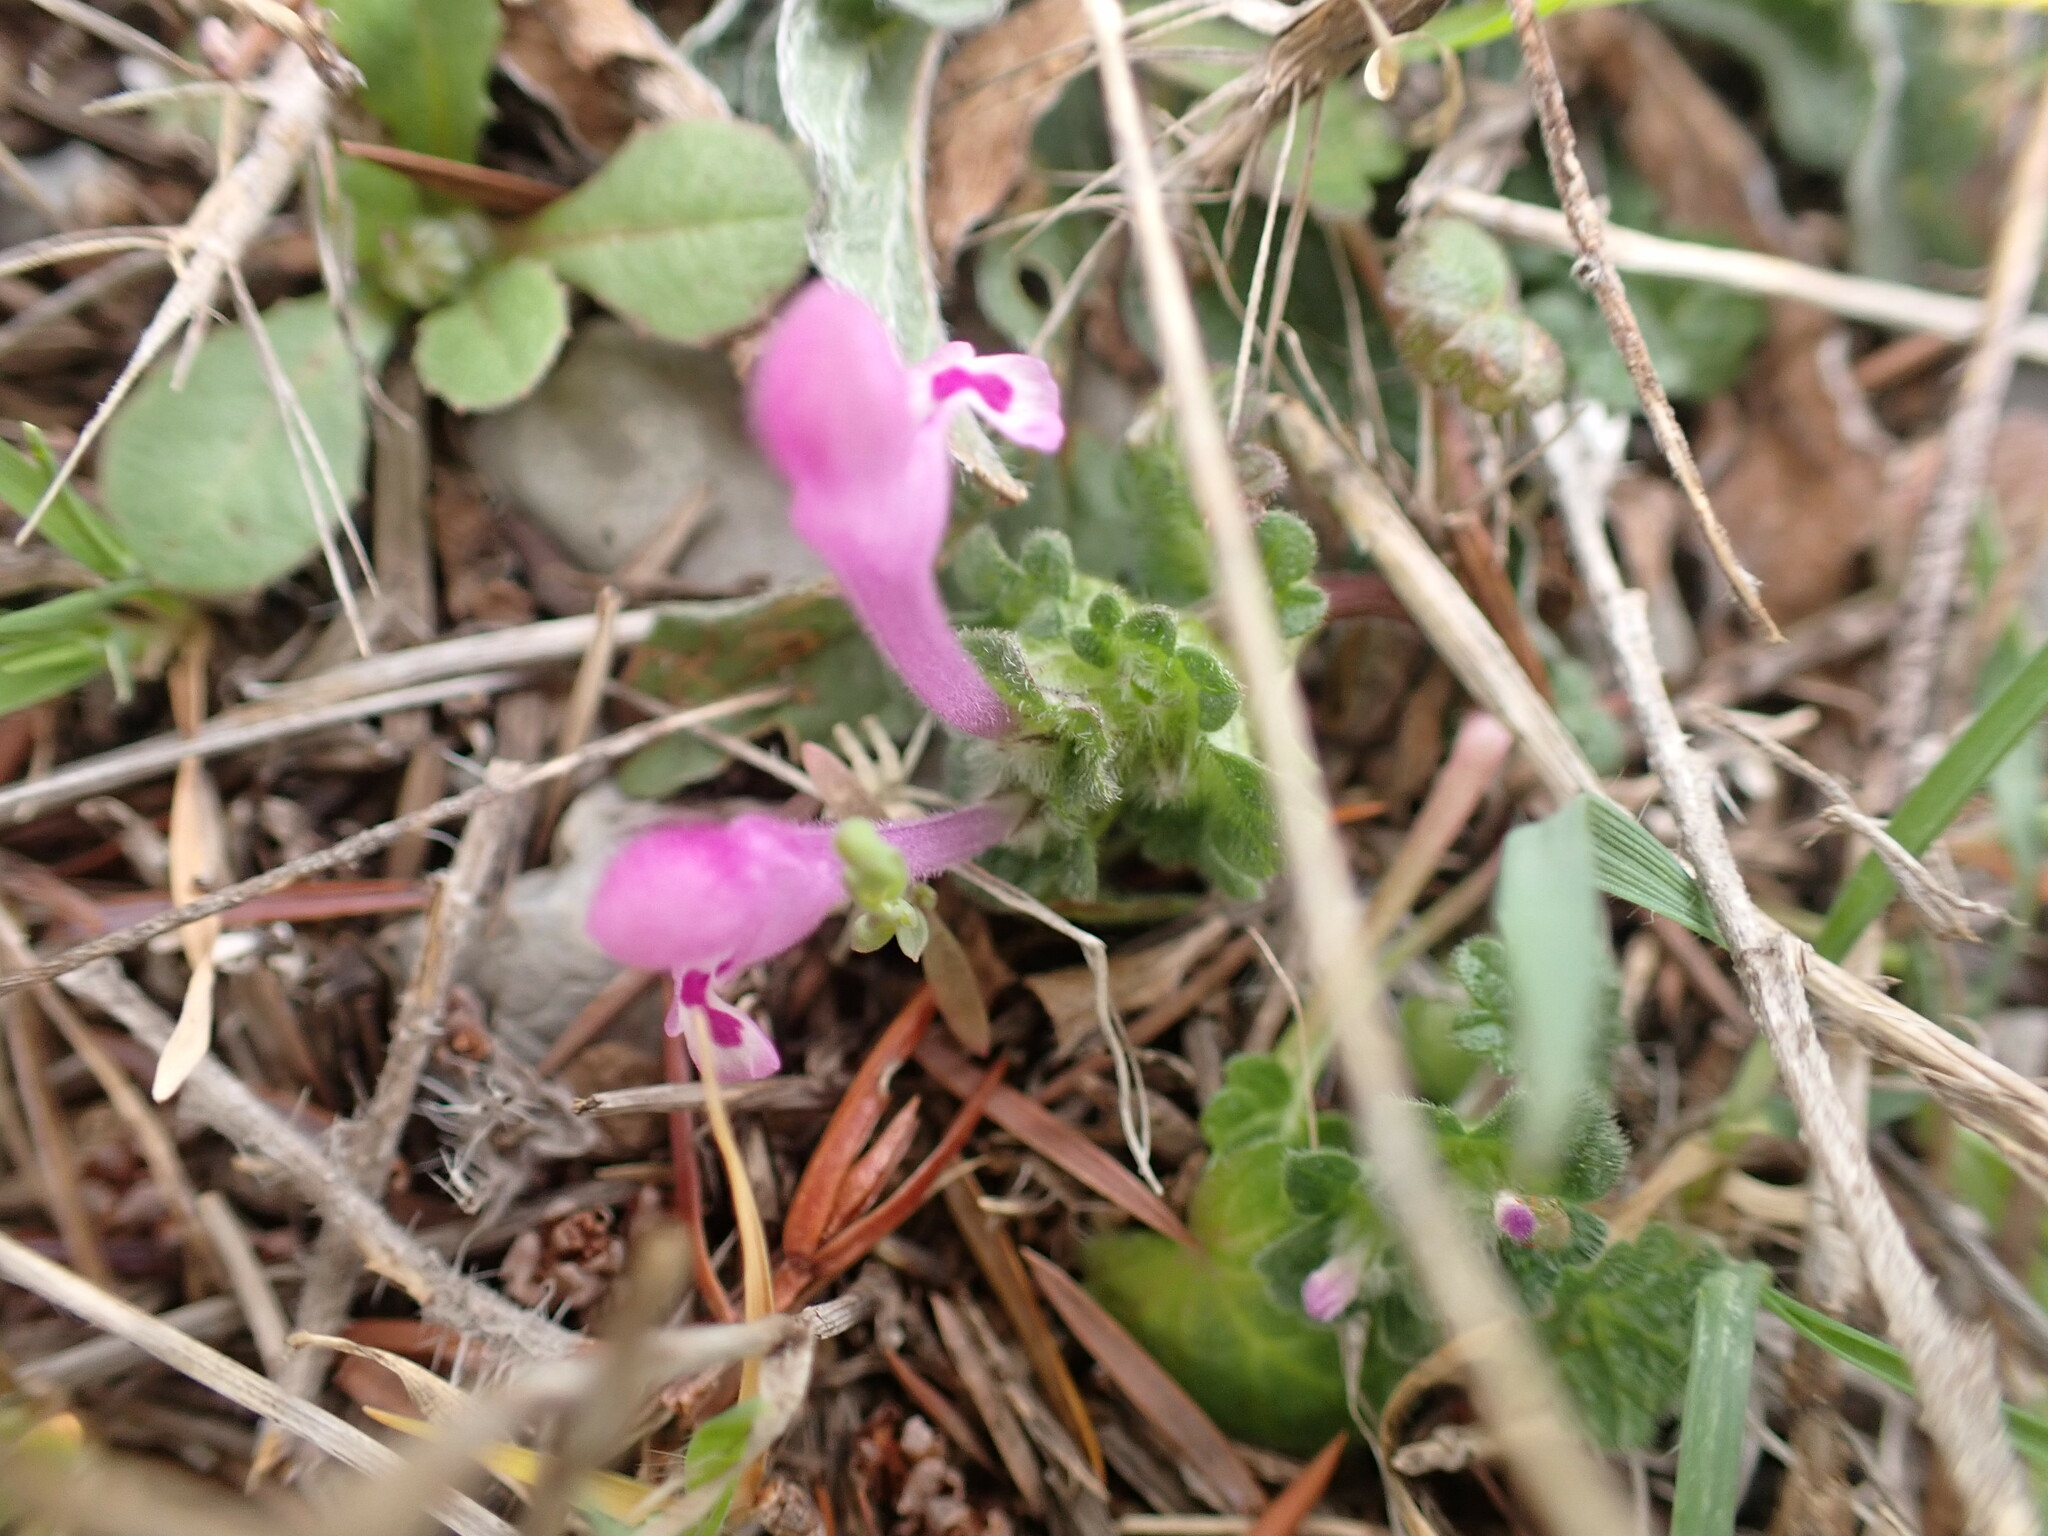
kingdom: Plantae
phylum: Tracheophyta
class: Magnoliopsida
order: Lamiales
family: Lamiaceae
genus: Lamium
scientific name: Lamium amplexicaule
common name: Henbit dead-nettle
